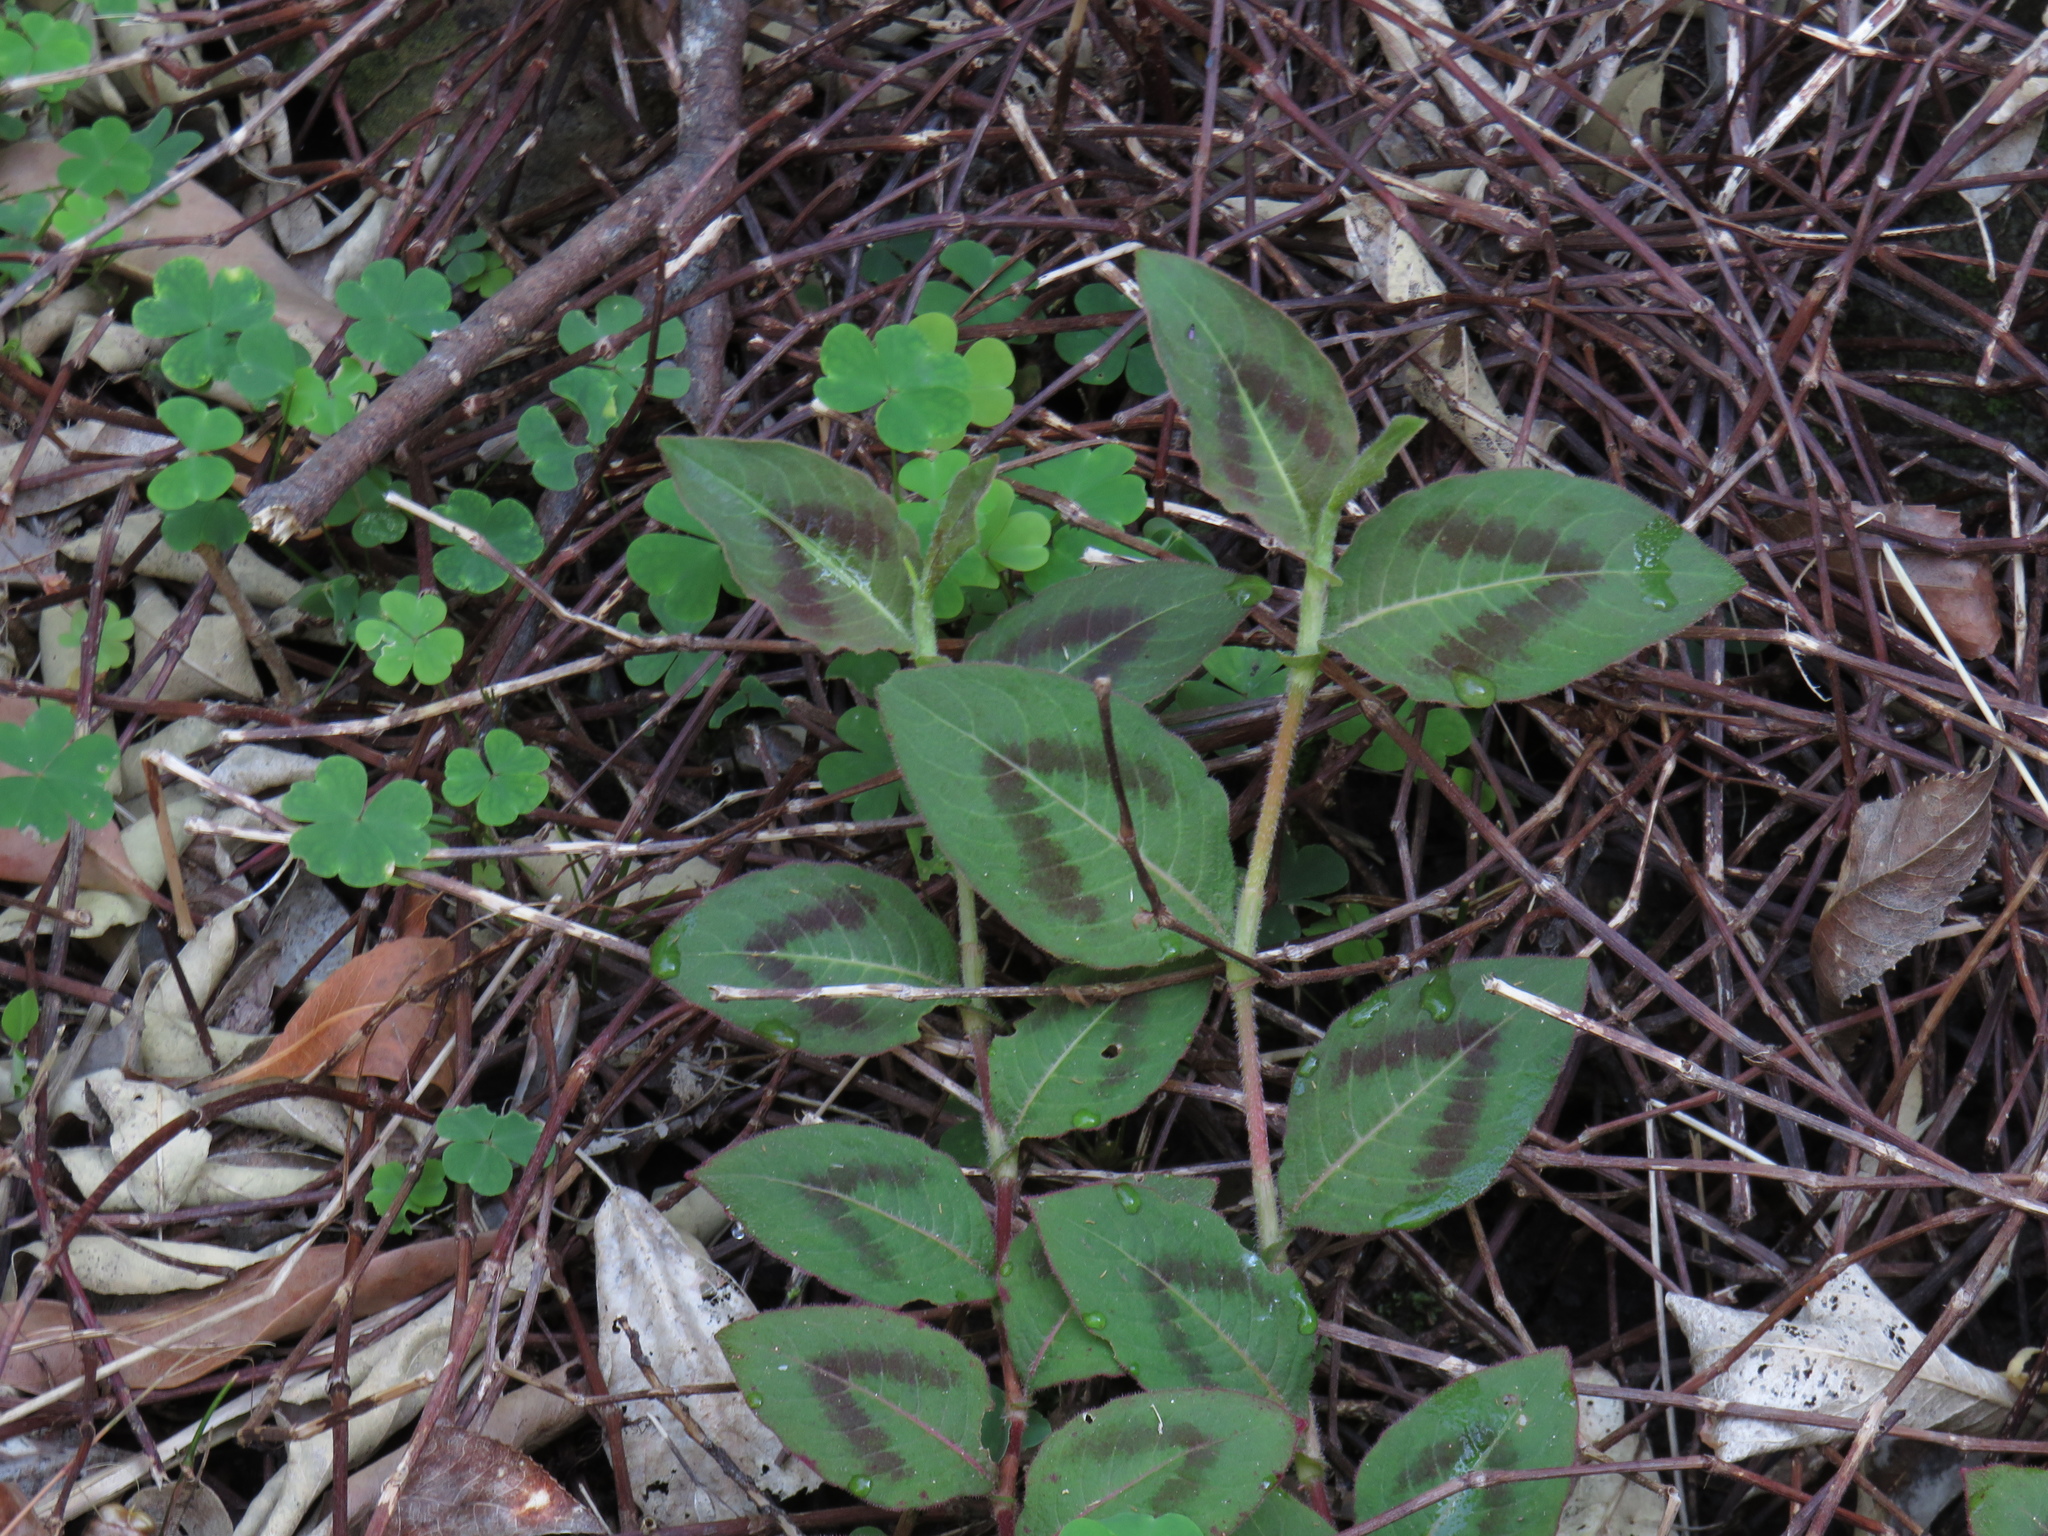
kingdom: Plantae
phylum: Tracheophyta
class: Magnoliopsida
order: Caryophyllales
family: Polygonaceae
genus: Persicaria
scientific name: Persicaria capitata
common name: Pinkhead smartweed
